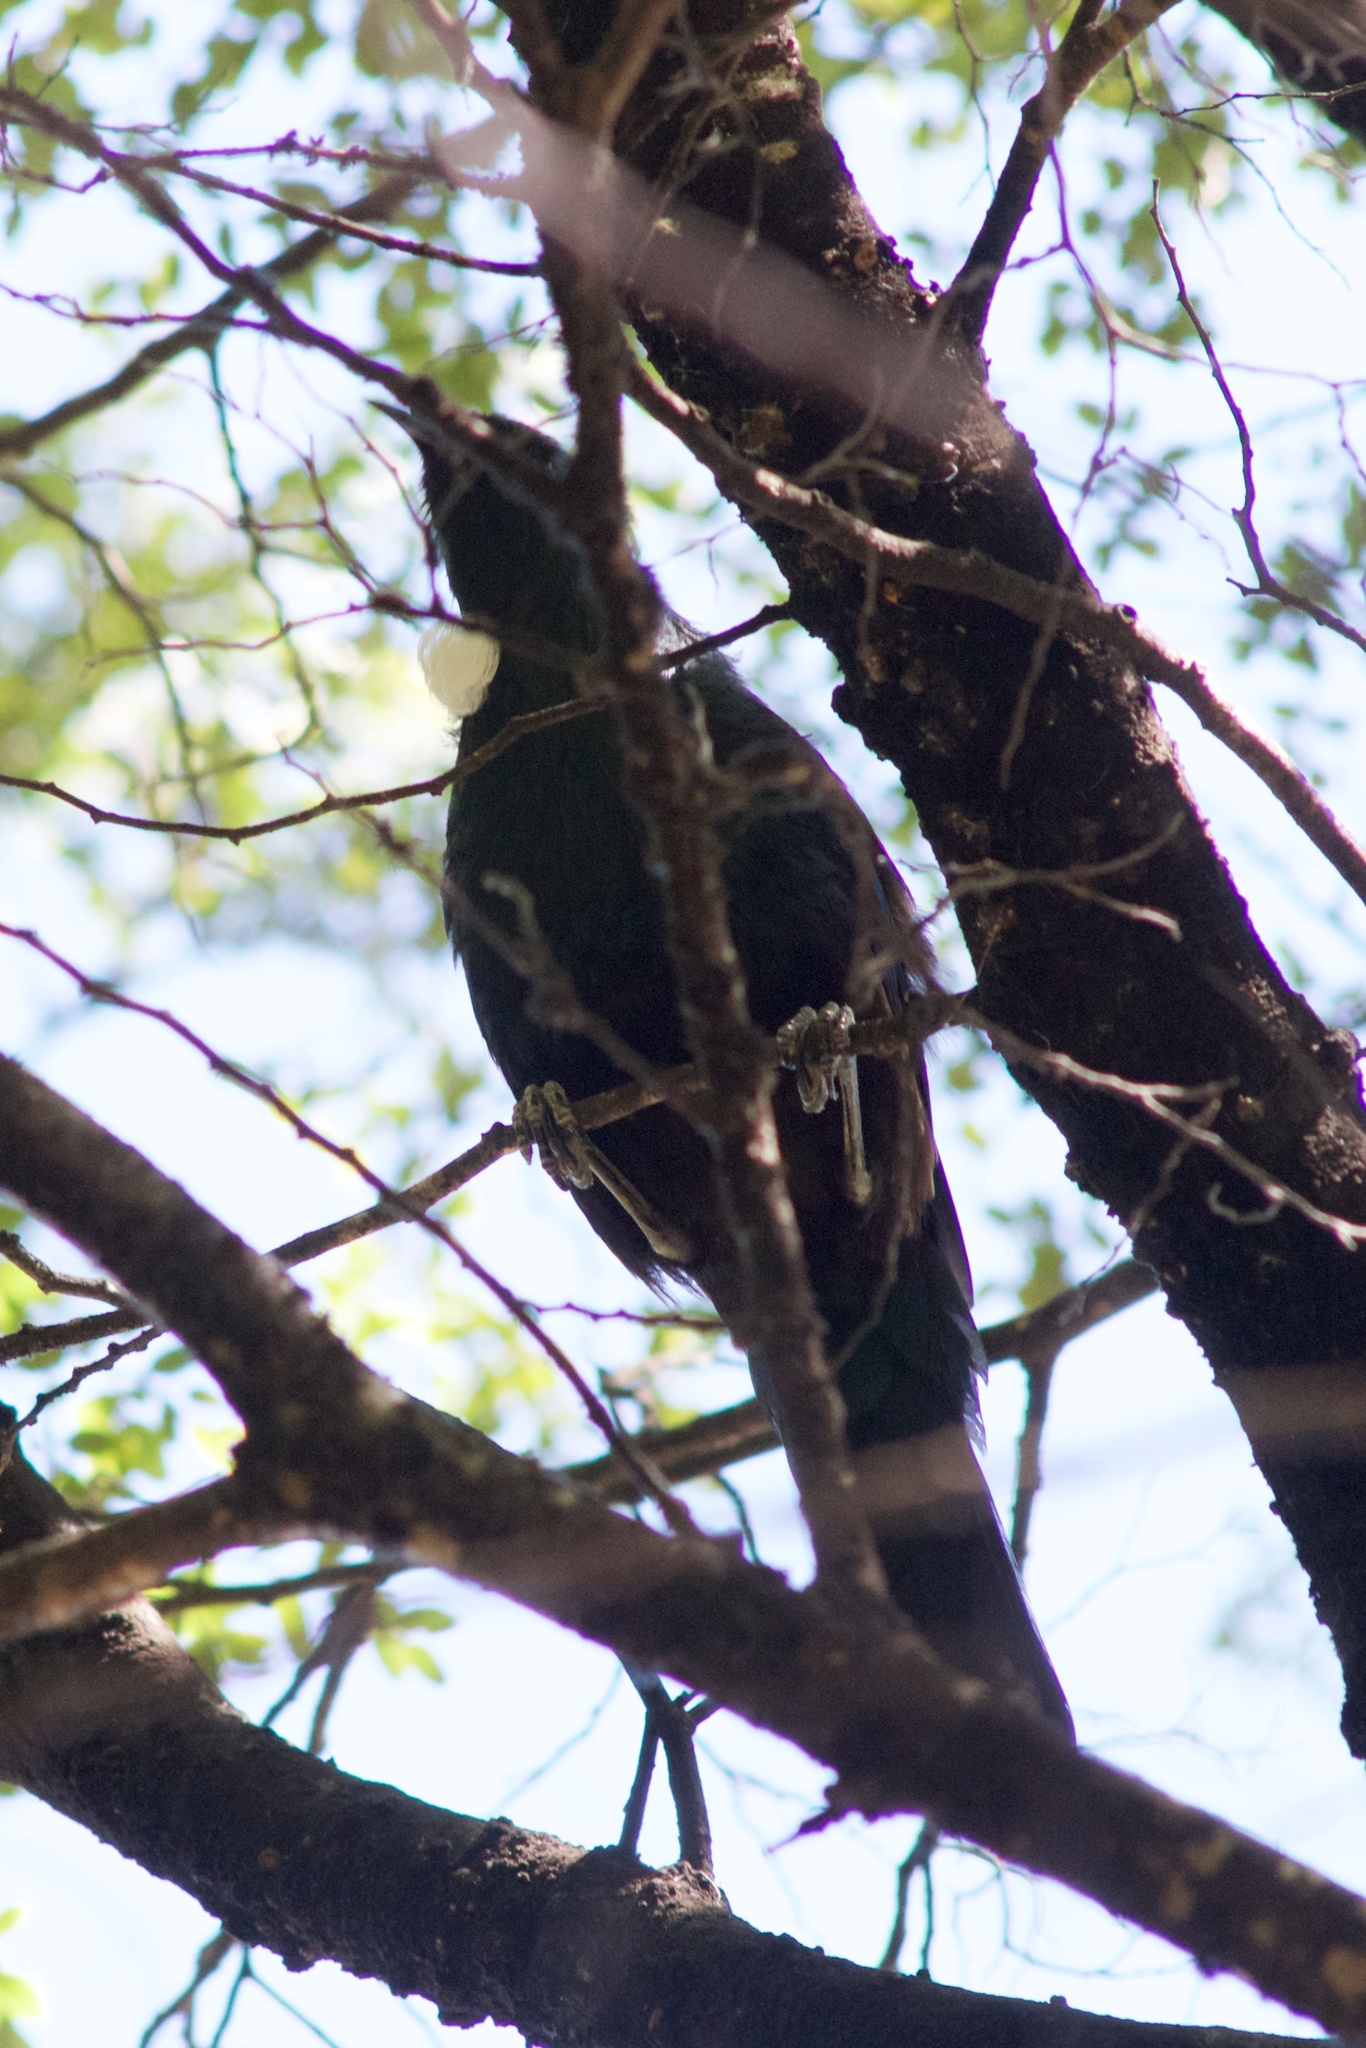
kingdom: Animalia
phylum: Chordata
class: Aves
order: Passeriformes
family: Meliphagidae
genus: Prosthemadera
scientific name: Prosthemadera novaeseelandiae
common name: Tui
